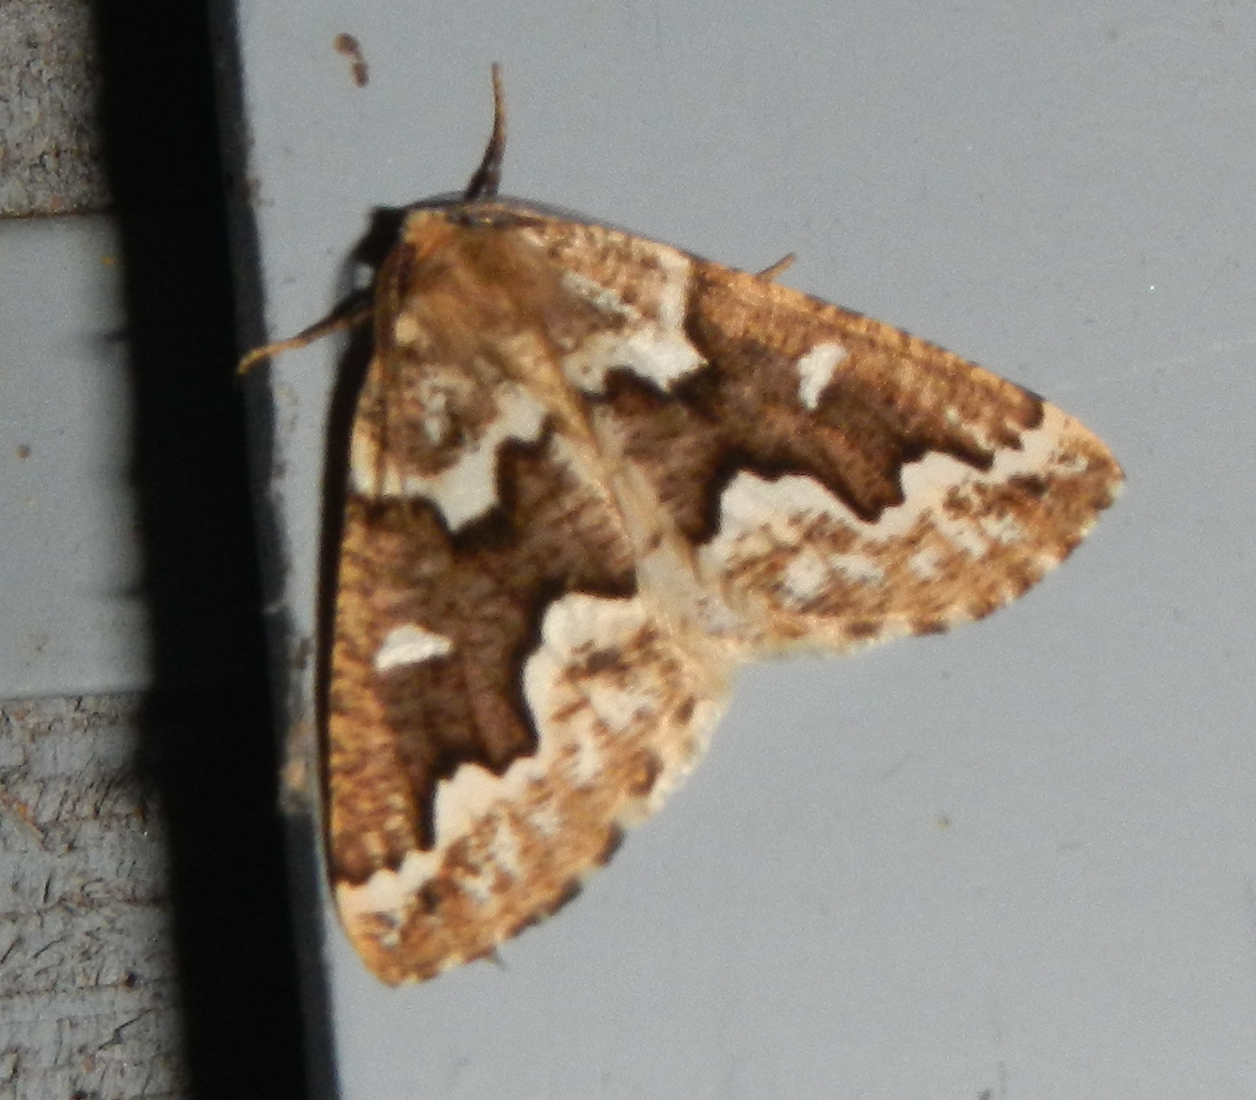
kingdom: Animalia
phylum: Arthropoda
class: Insecta
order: Lepidoptera
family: Geometridae
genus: Caripeta
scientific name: Caripeta divisata
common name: Gray spruce looper
